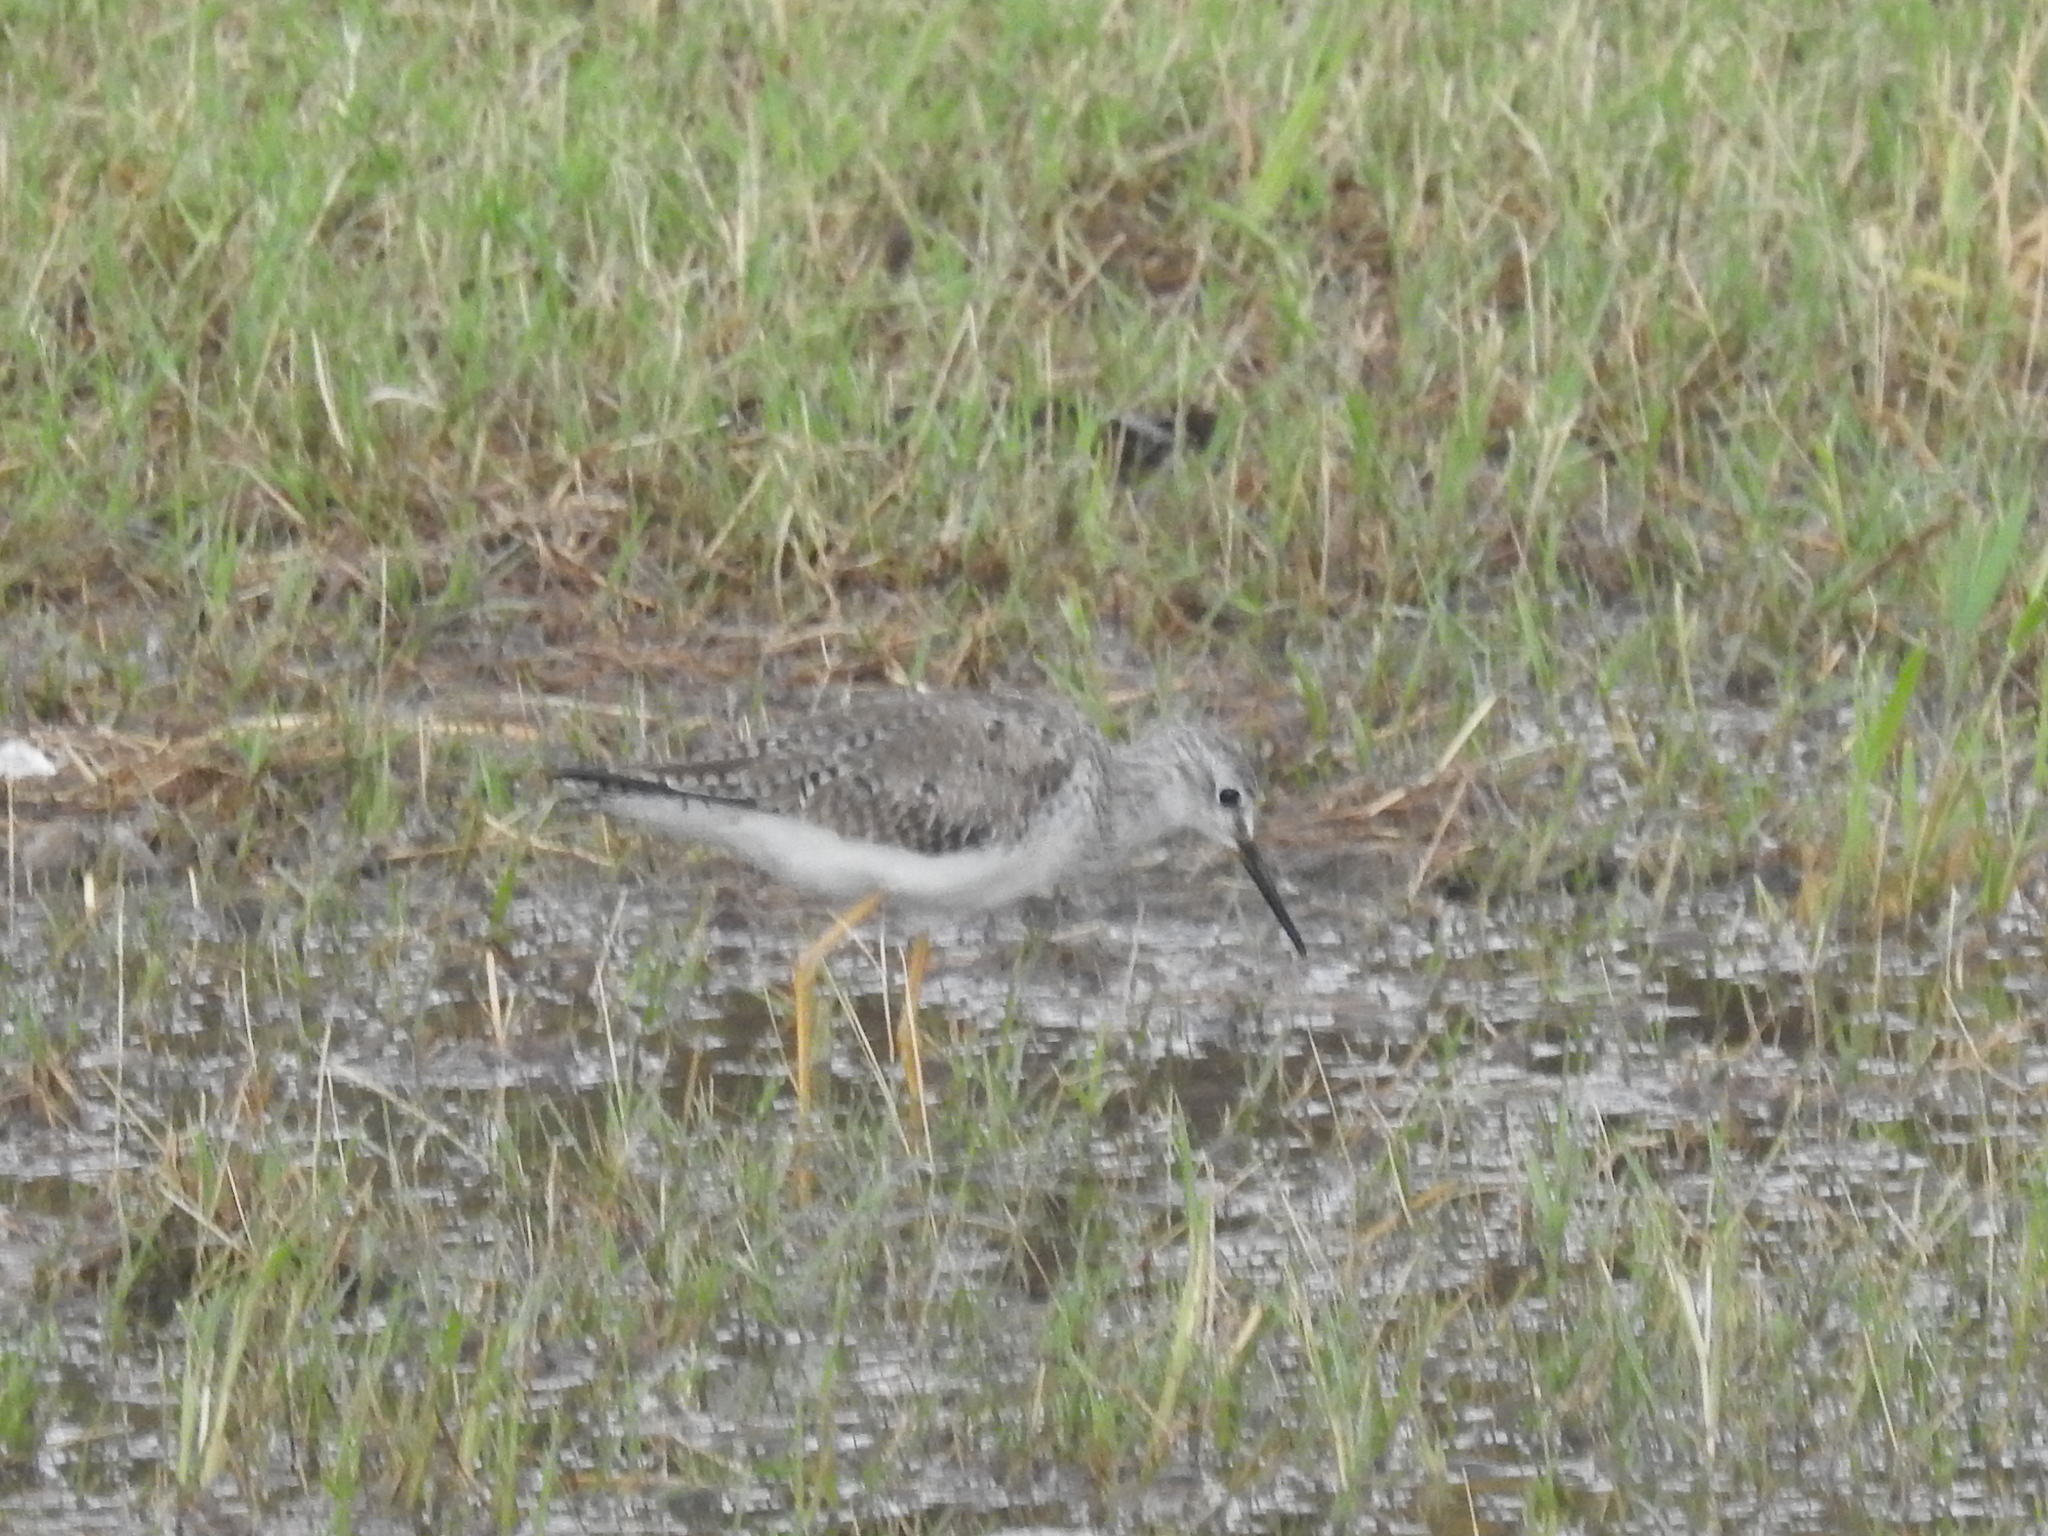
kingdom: Animalia
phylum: Chordata
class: Aves
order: Charadriiformes
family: Scolopacidae
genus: Tringa
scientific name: Tringa flavipes
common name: Lesser yellowlegs
